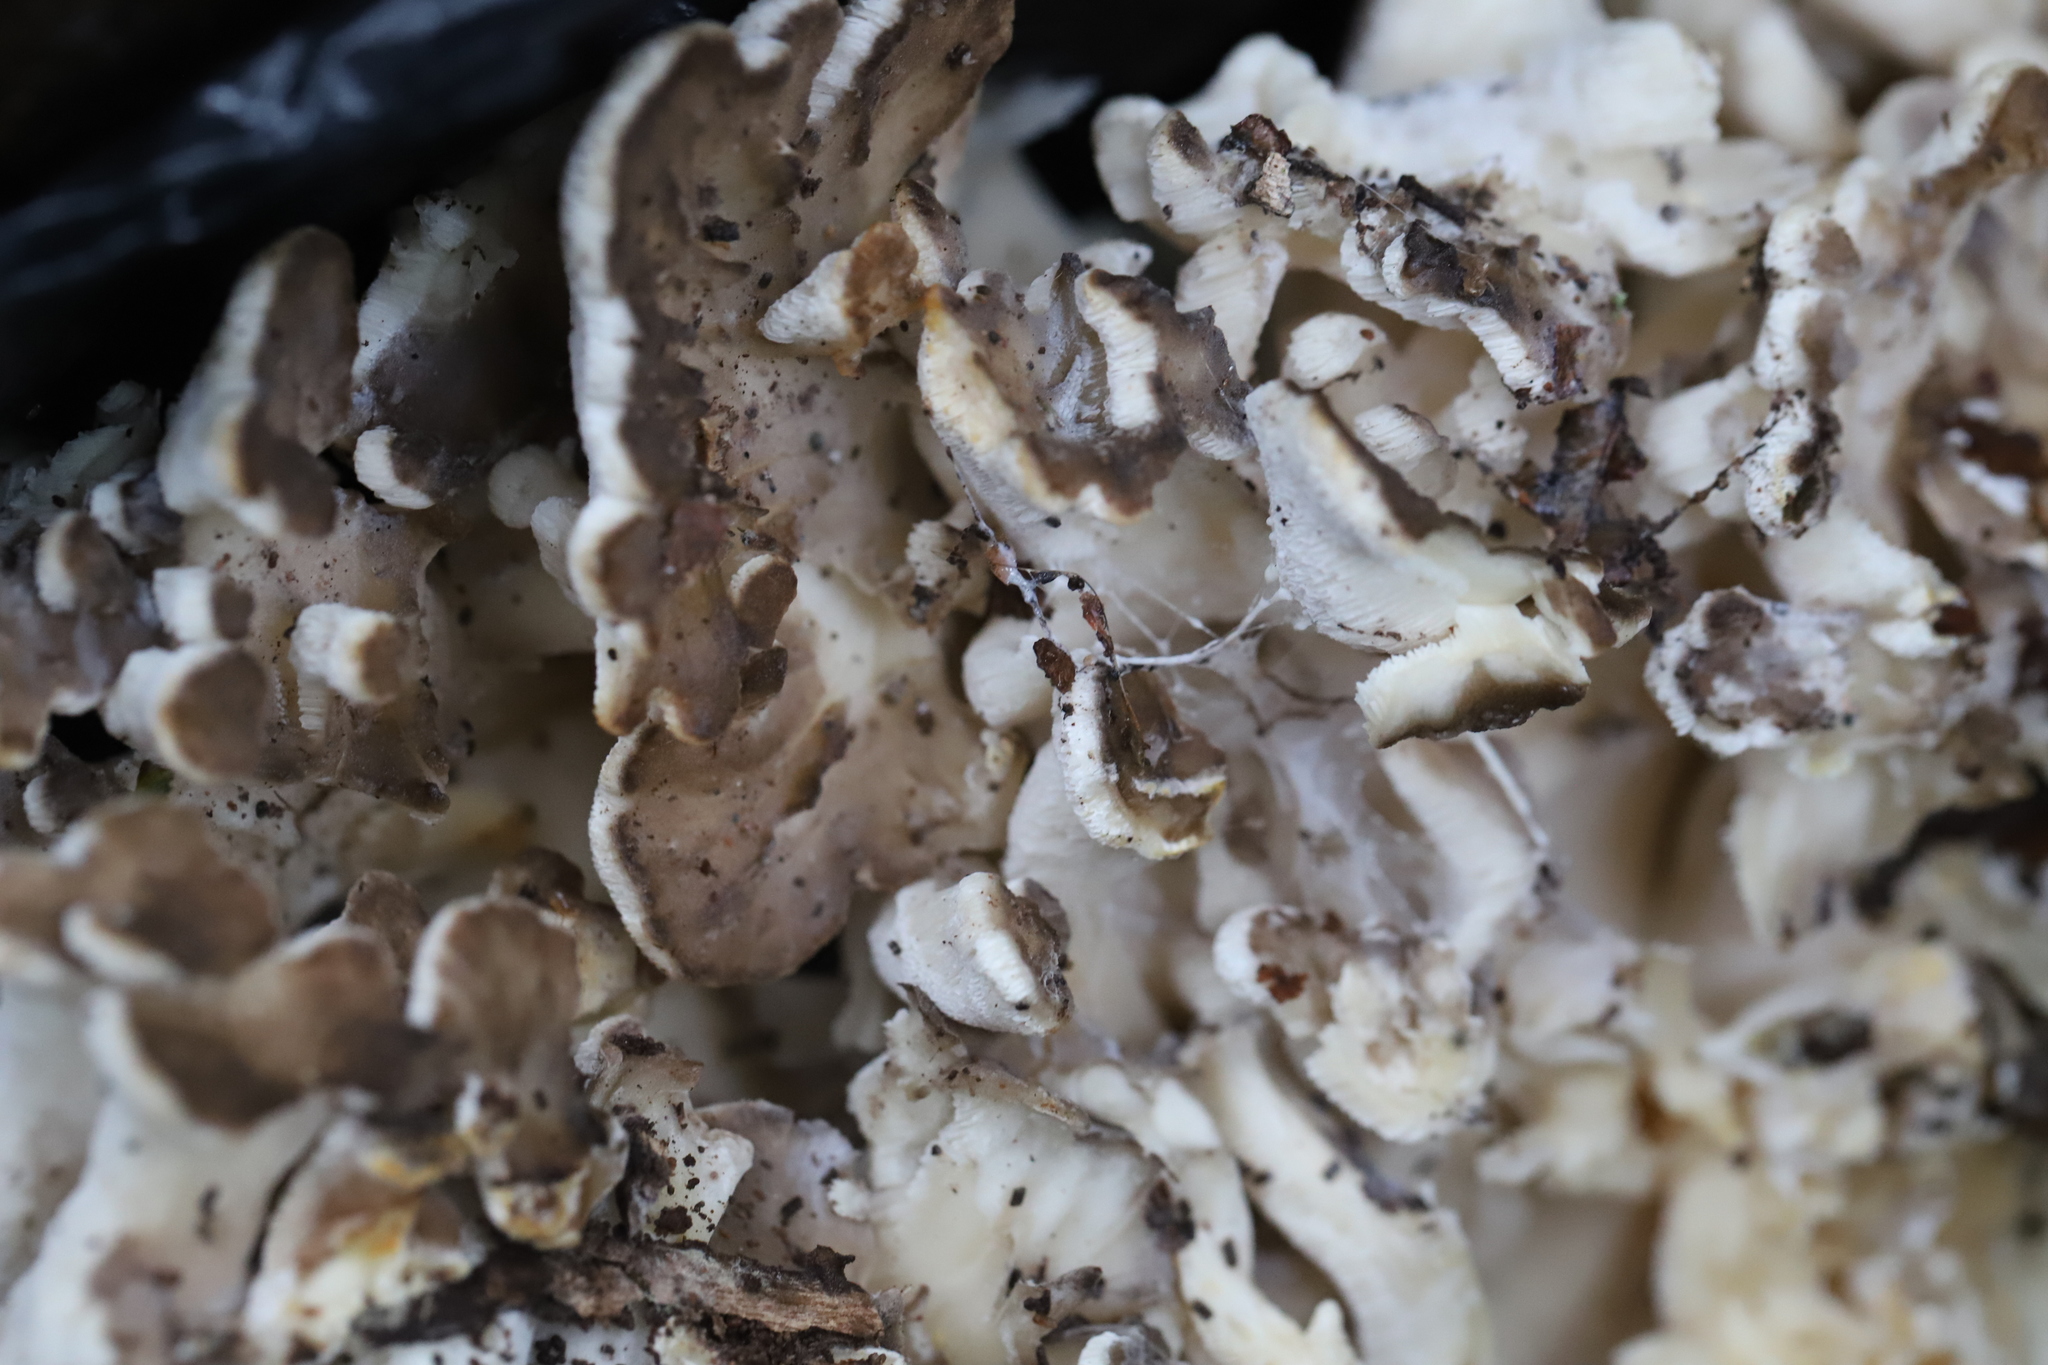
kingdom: Fungi
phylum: Basidiomycota
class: Agaricomycetes
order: Polyporales
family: Grifolaceae
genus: Grifola
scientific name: Grifola frondosa
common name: Hen of the woods
